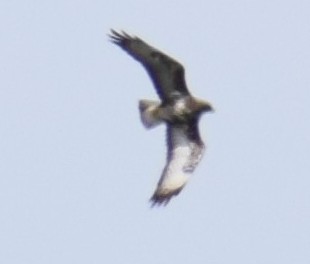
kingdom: Animalia
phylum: Chordata
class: Aves
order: Accipitriformes
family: Accipitridae
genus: Buteo
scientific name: Buteo buteo
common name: Common buzzard
